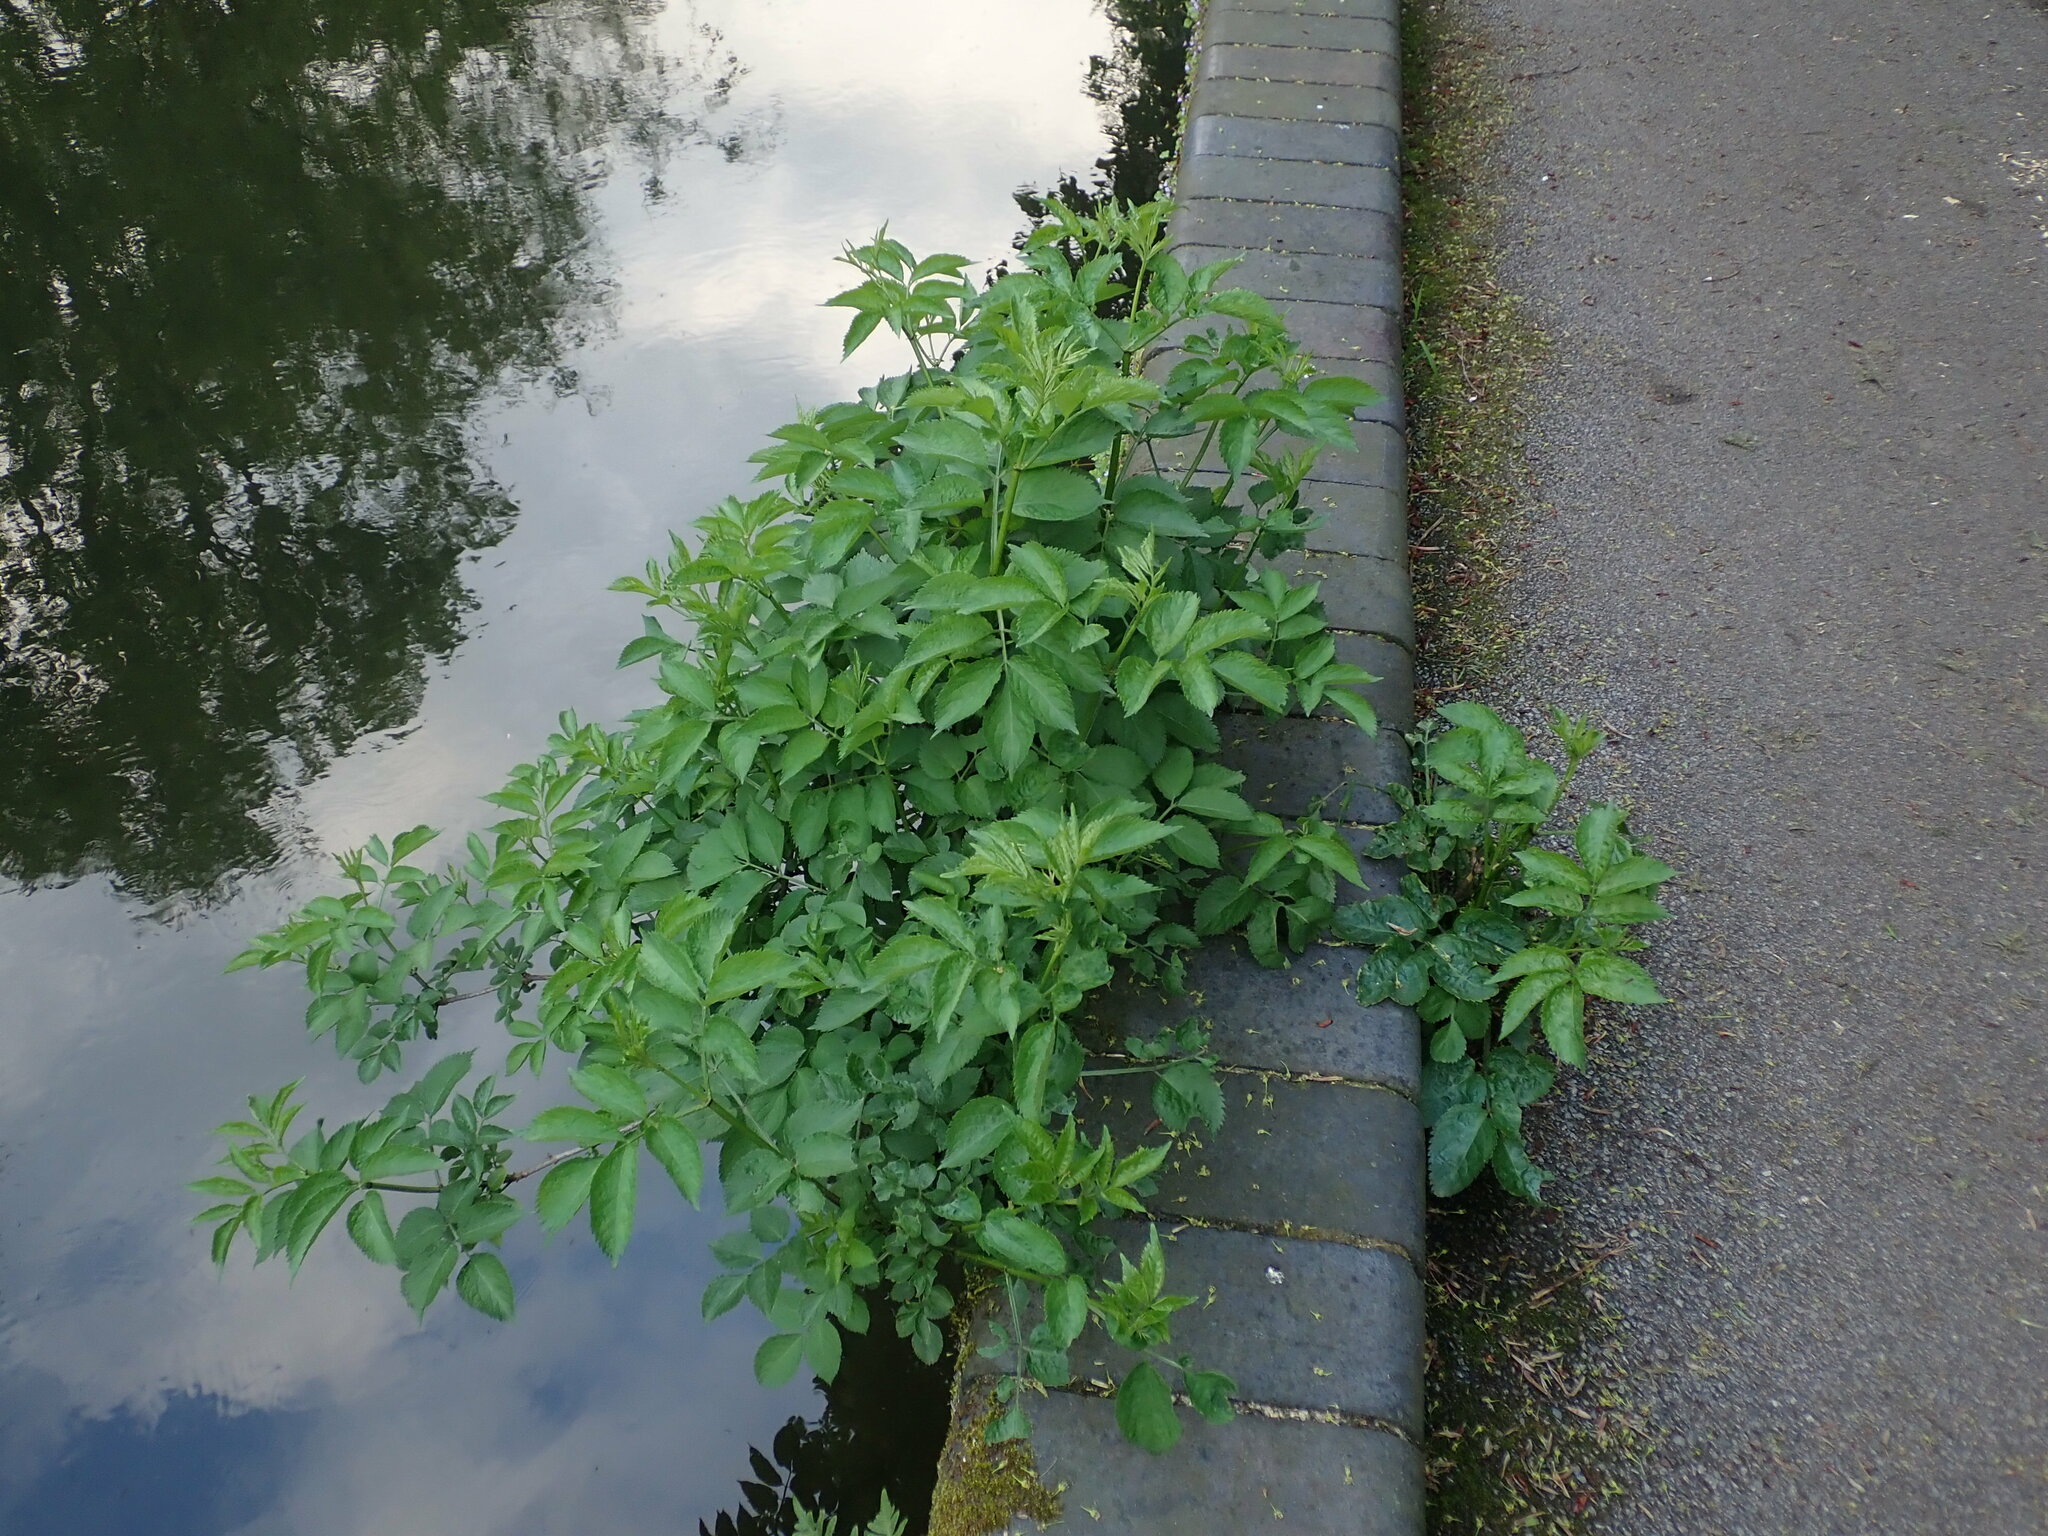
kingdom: Plantae
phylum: Tracheophyta
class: Magnoliopsida
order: Dipsacales
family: Viburnaceae
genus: Sambucus
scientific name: Sambucus nigra
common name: Elder
